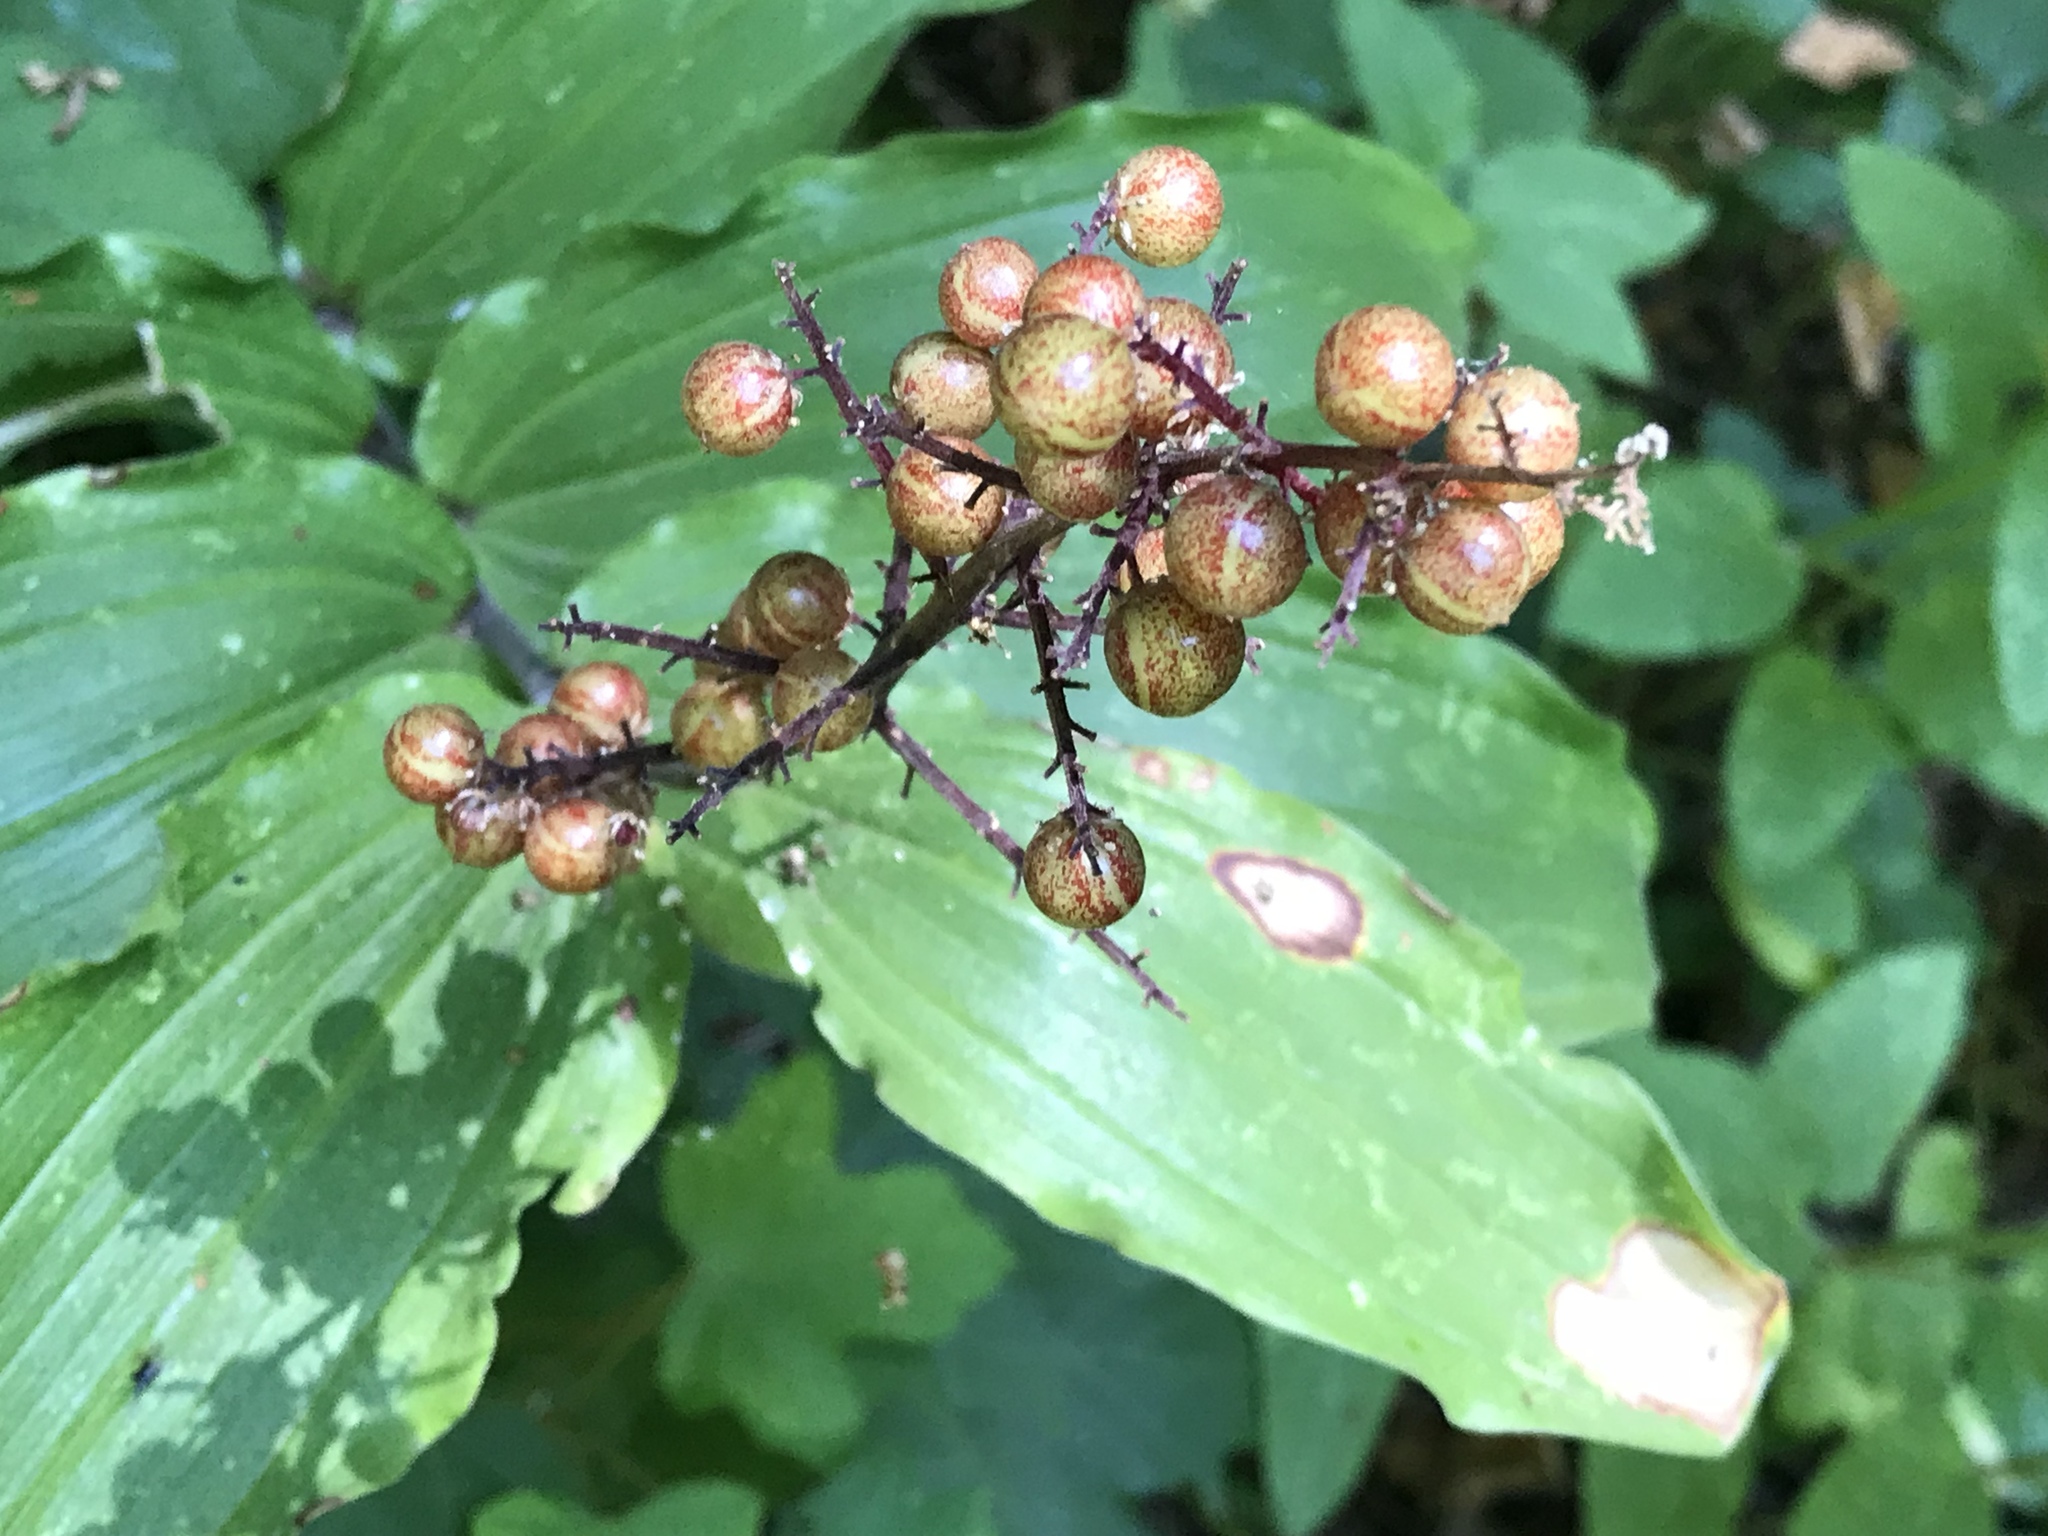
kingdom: Plantae
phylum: Tracheophyta
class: Liliopsida
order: Asparagales
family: Asparagaceae
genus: Maianthemum
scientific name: Maianthemum racemosum
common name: False spikenard
